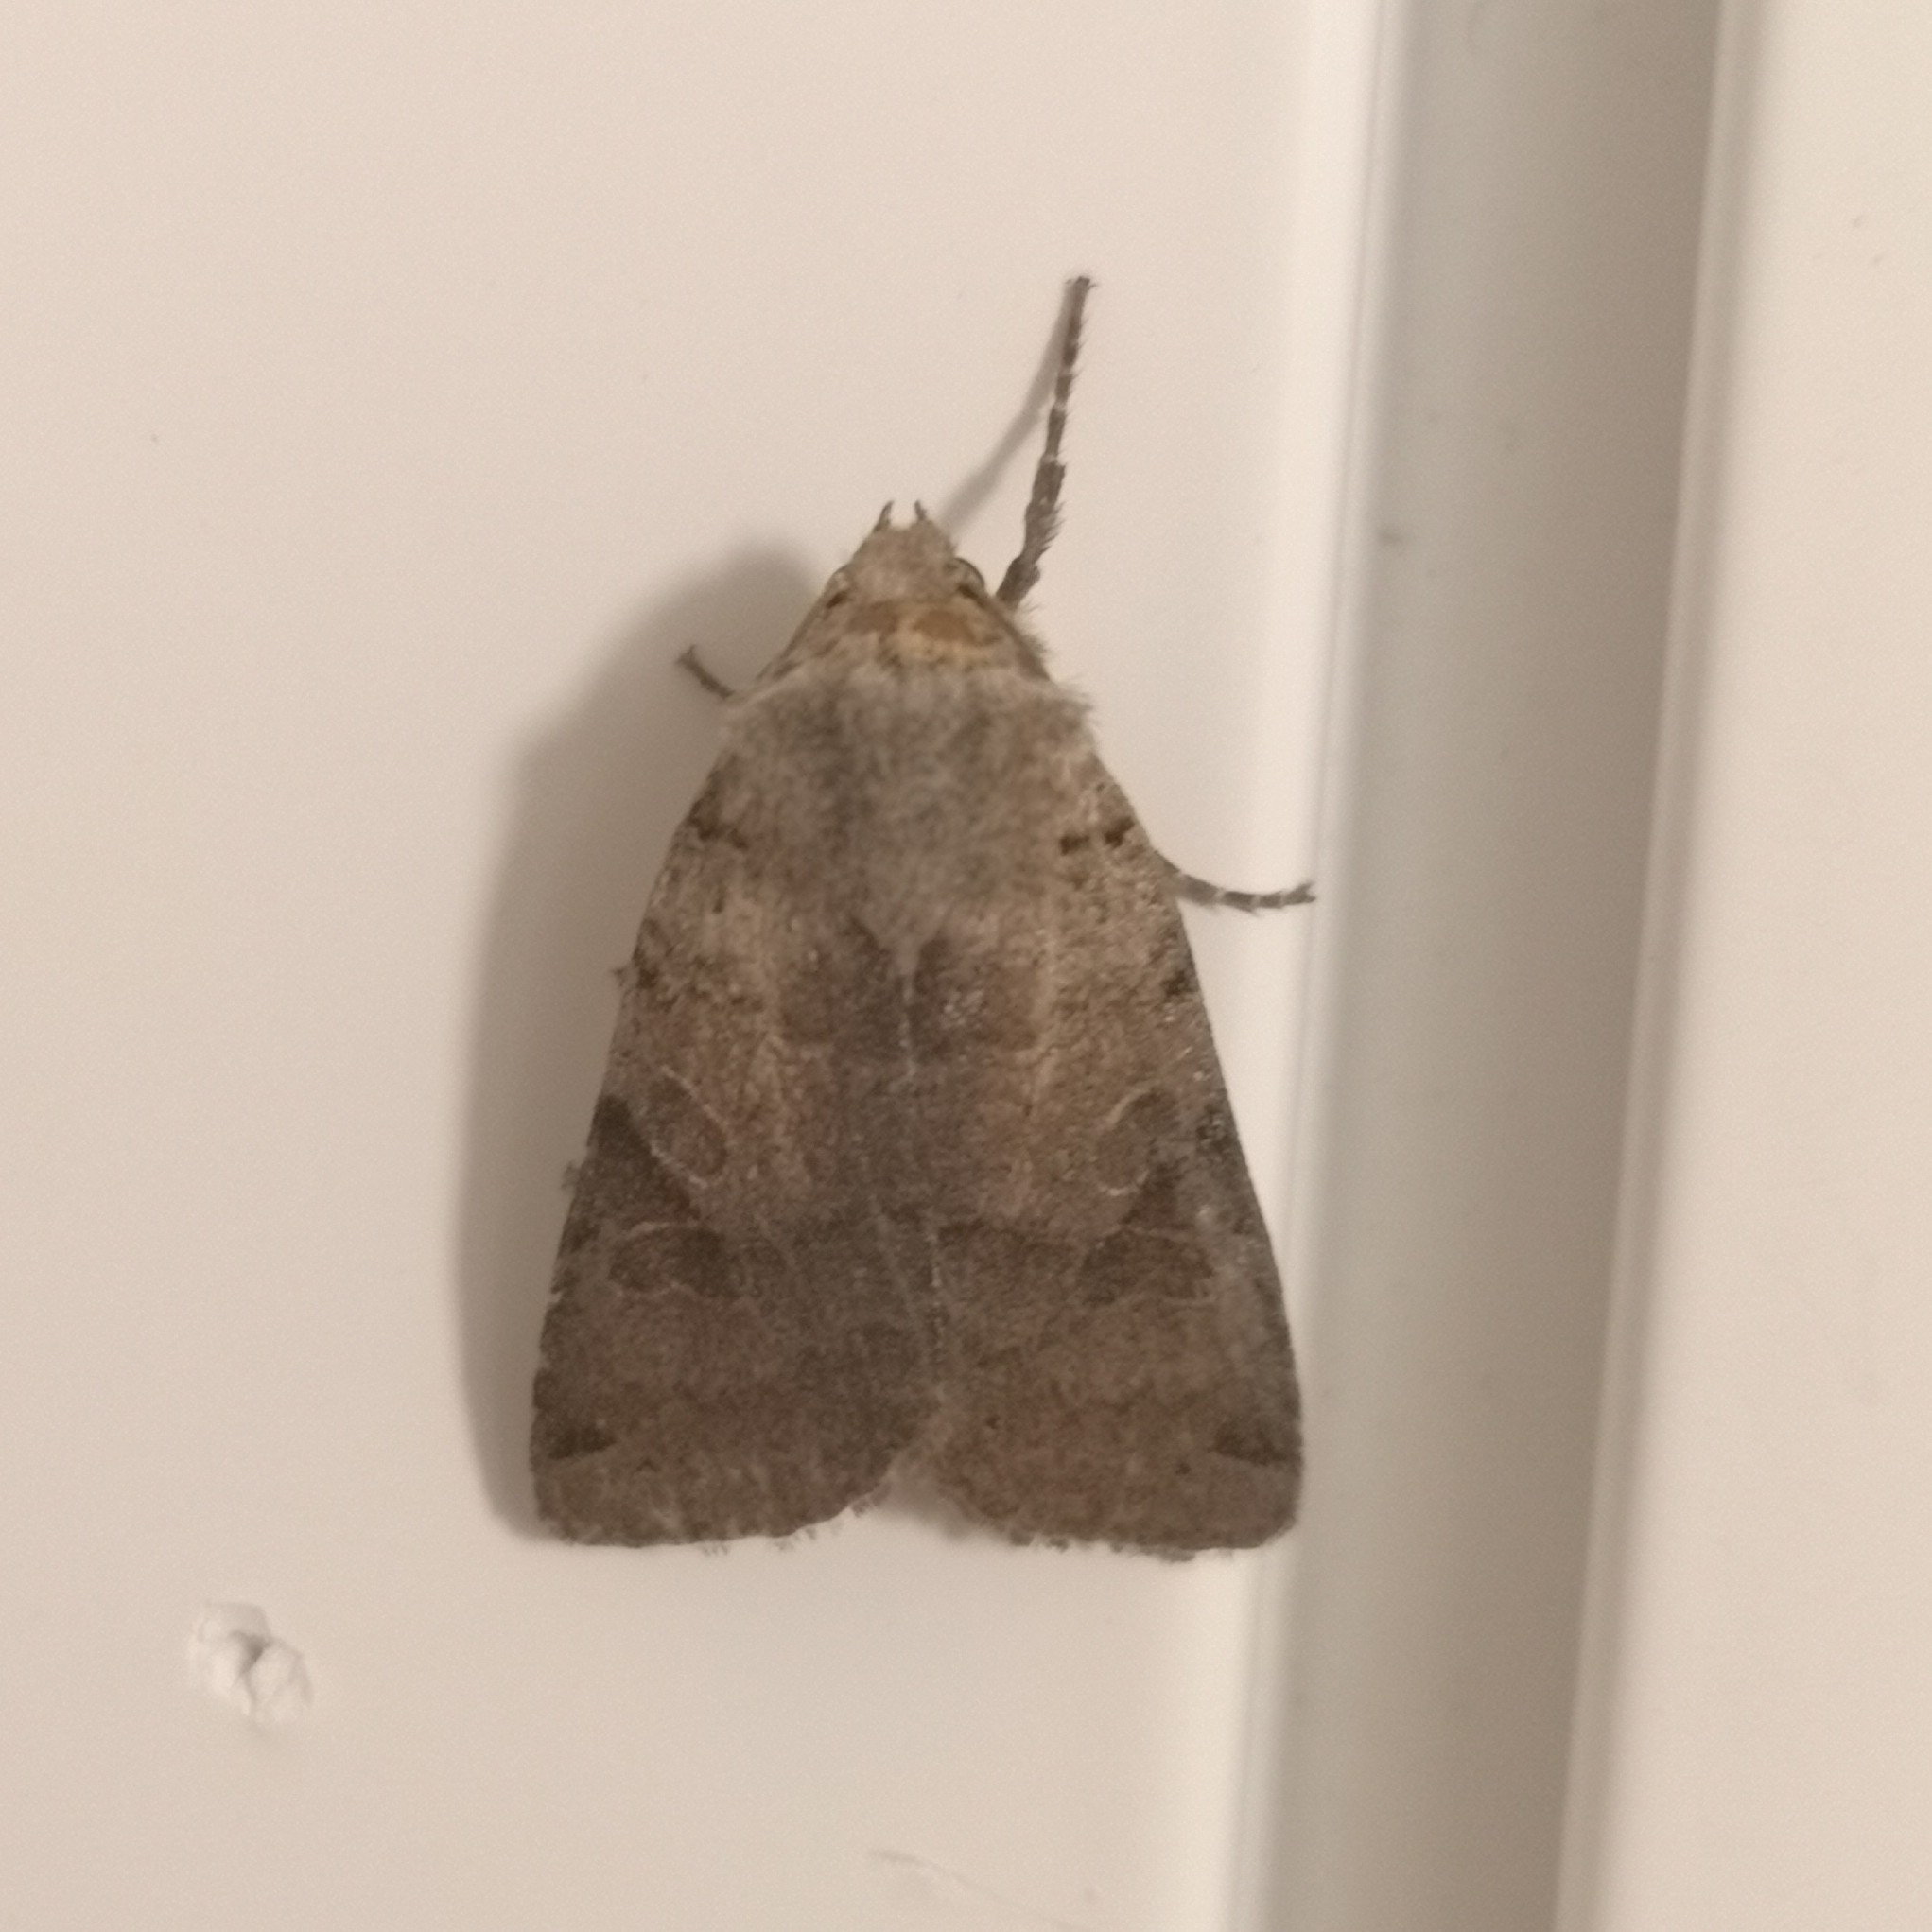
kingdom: Animalia
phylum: Arthropoda
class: Insecta
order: Lepidoptera
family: Noctuidae
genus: Agrochola
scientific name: Agrochola litura
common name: Brown-spot pinion
